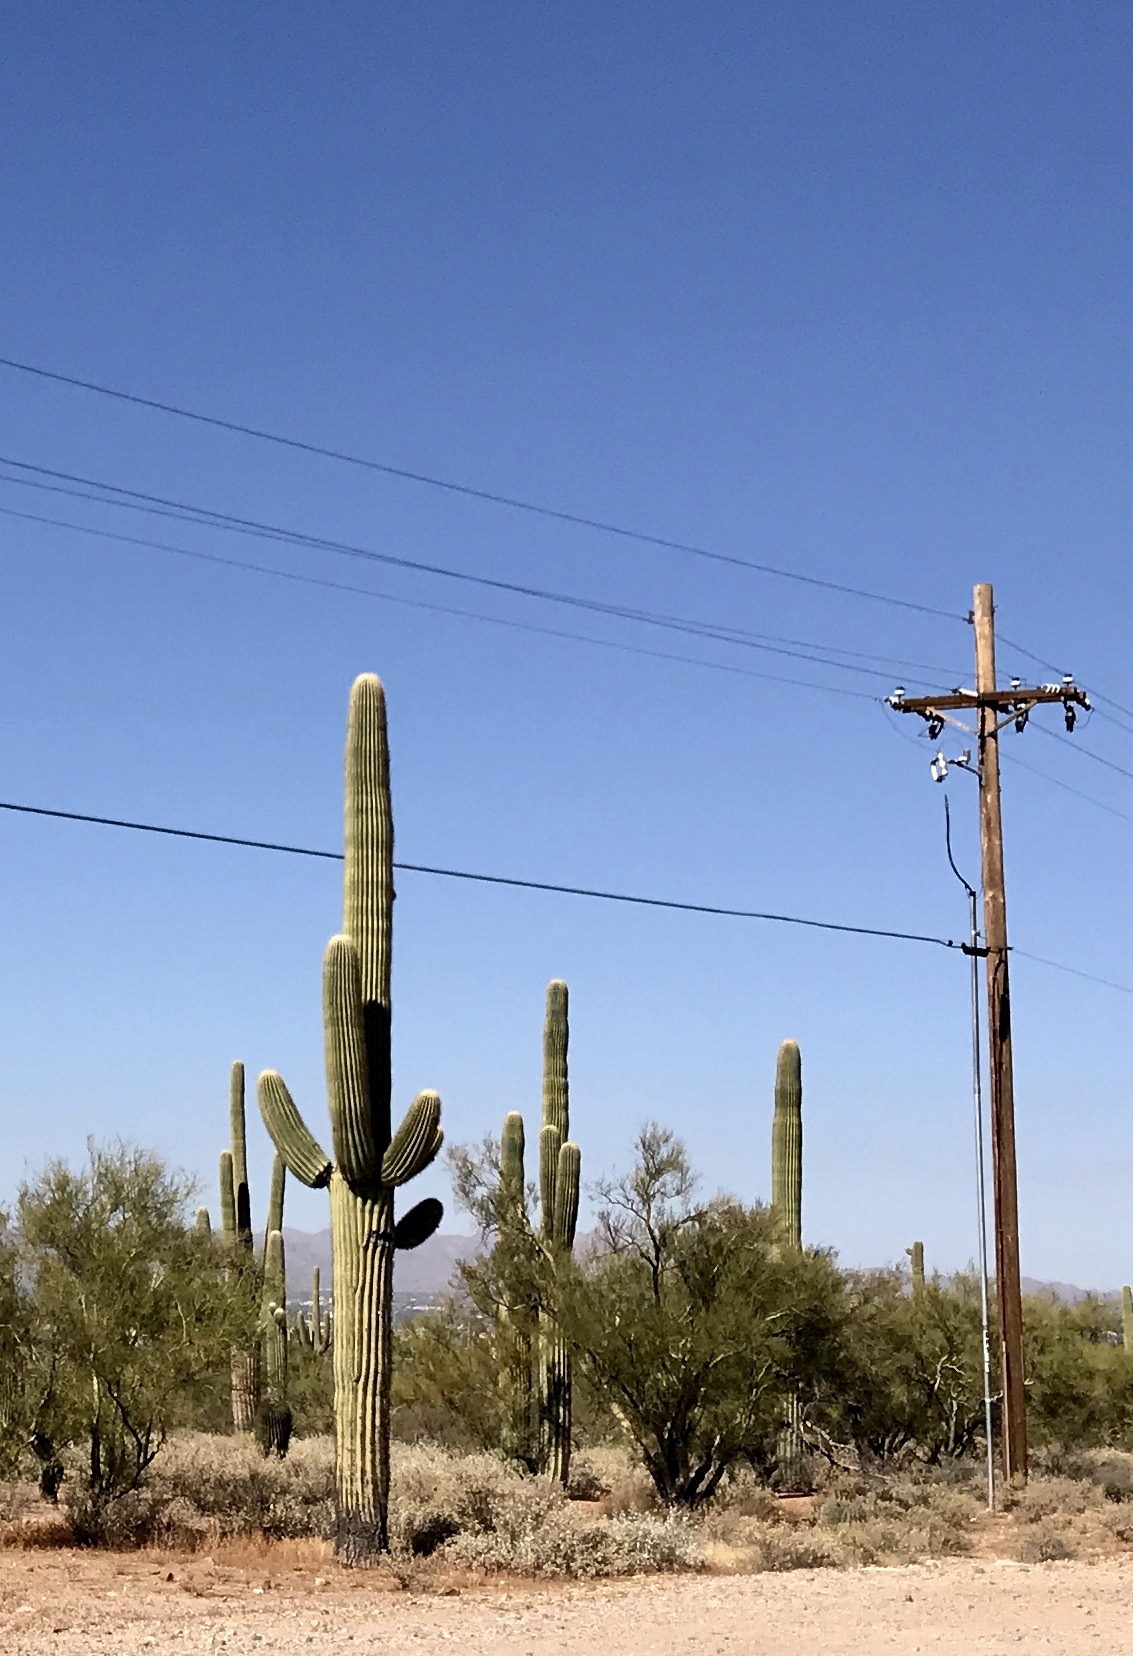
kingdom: Plantae
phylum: Tracheophyta
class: Magnoliopsida
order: Caryophyllales
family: Cactaceae
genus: Carnegiea
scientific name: Carnegiea gigantea
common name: Saguaro
